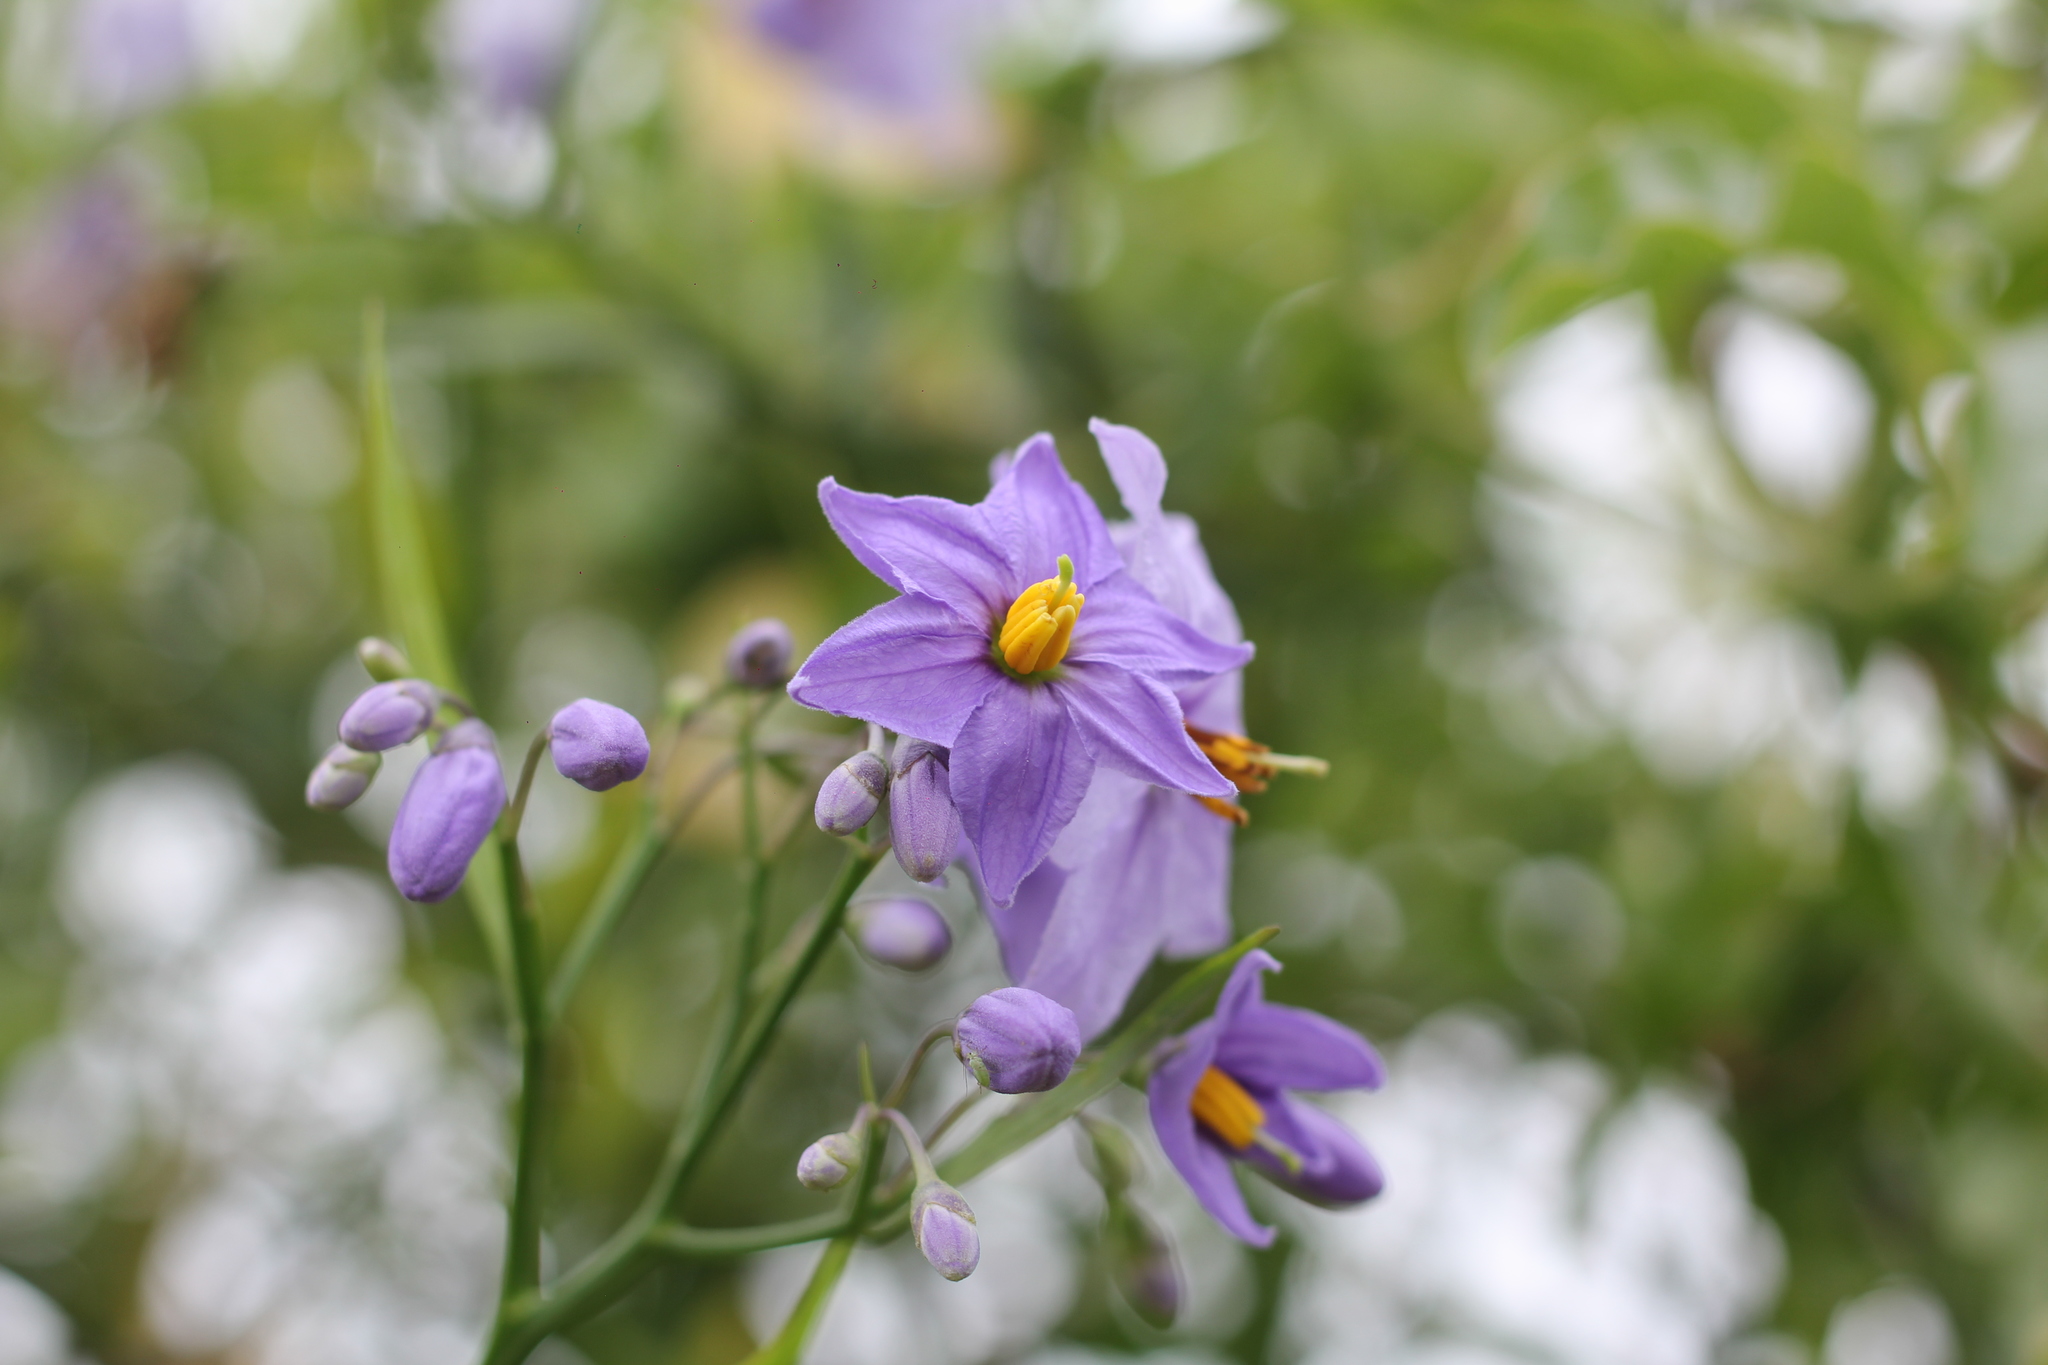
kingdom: Plantae
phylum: Tracheophyta
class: Magnoliopsida
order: Solanales
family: Solanaceae
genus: Solanum
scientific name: Solanum amygdalifolium
